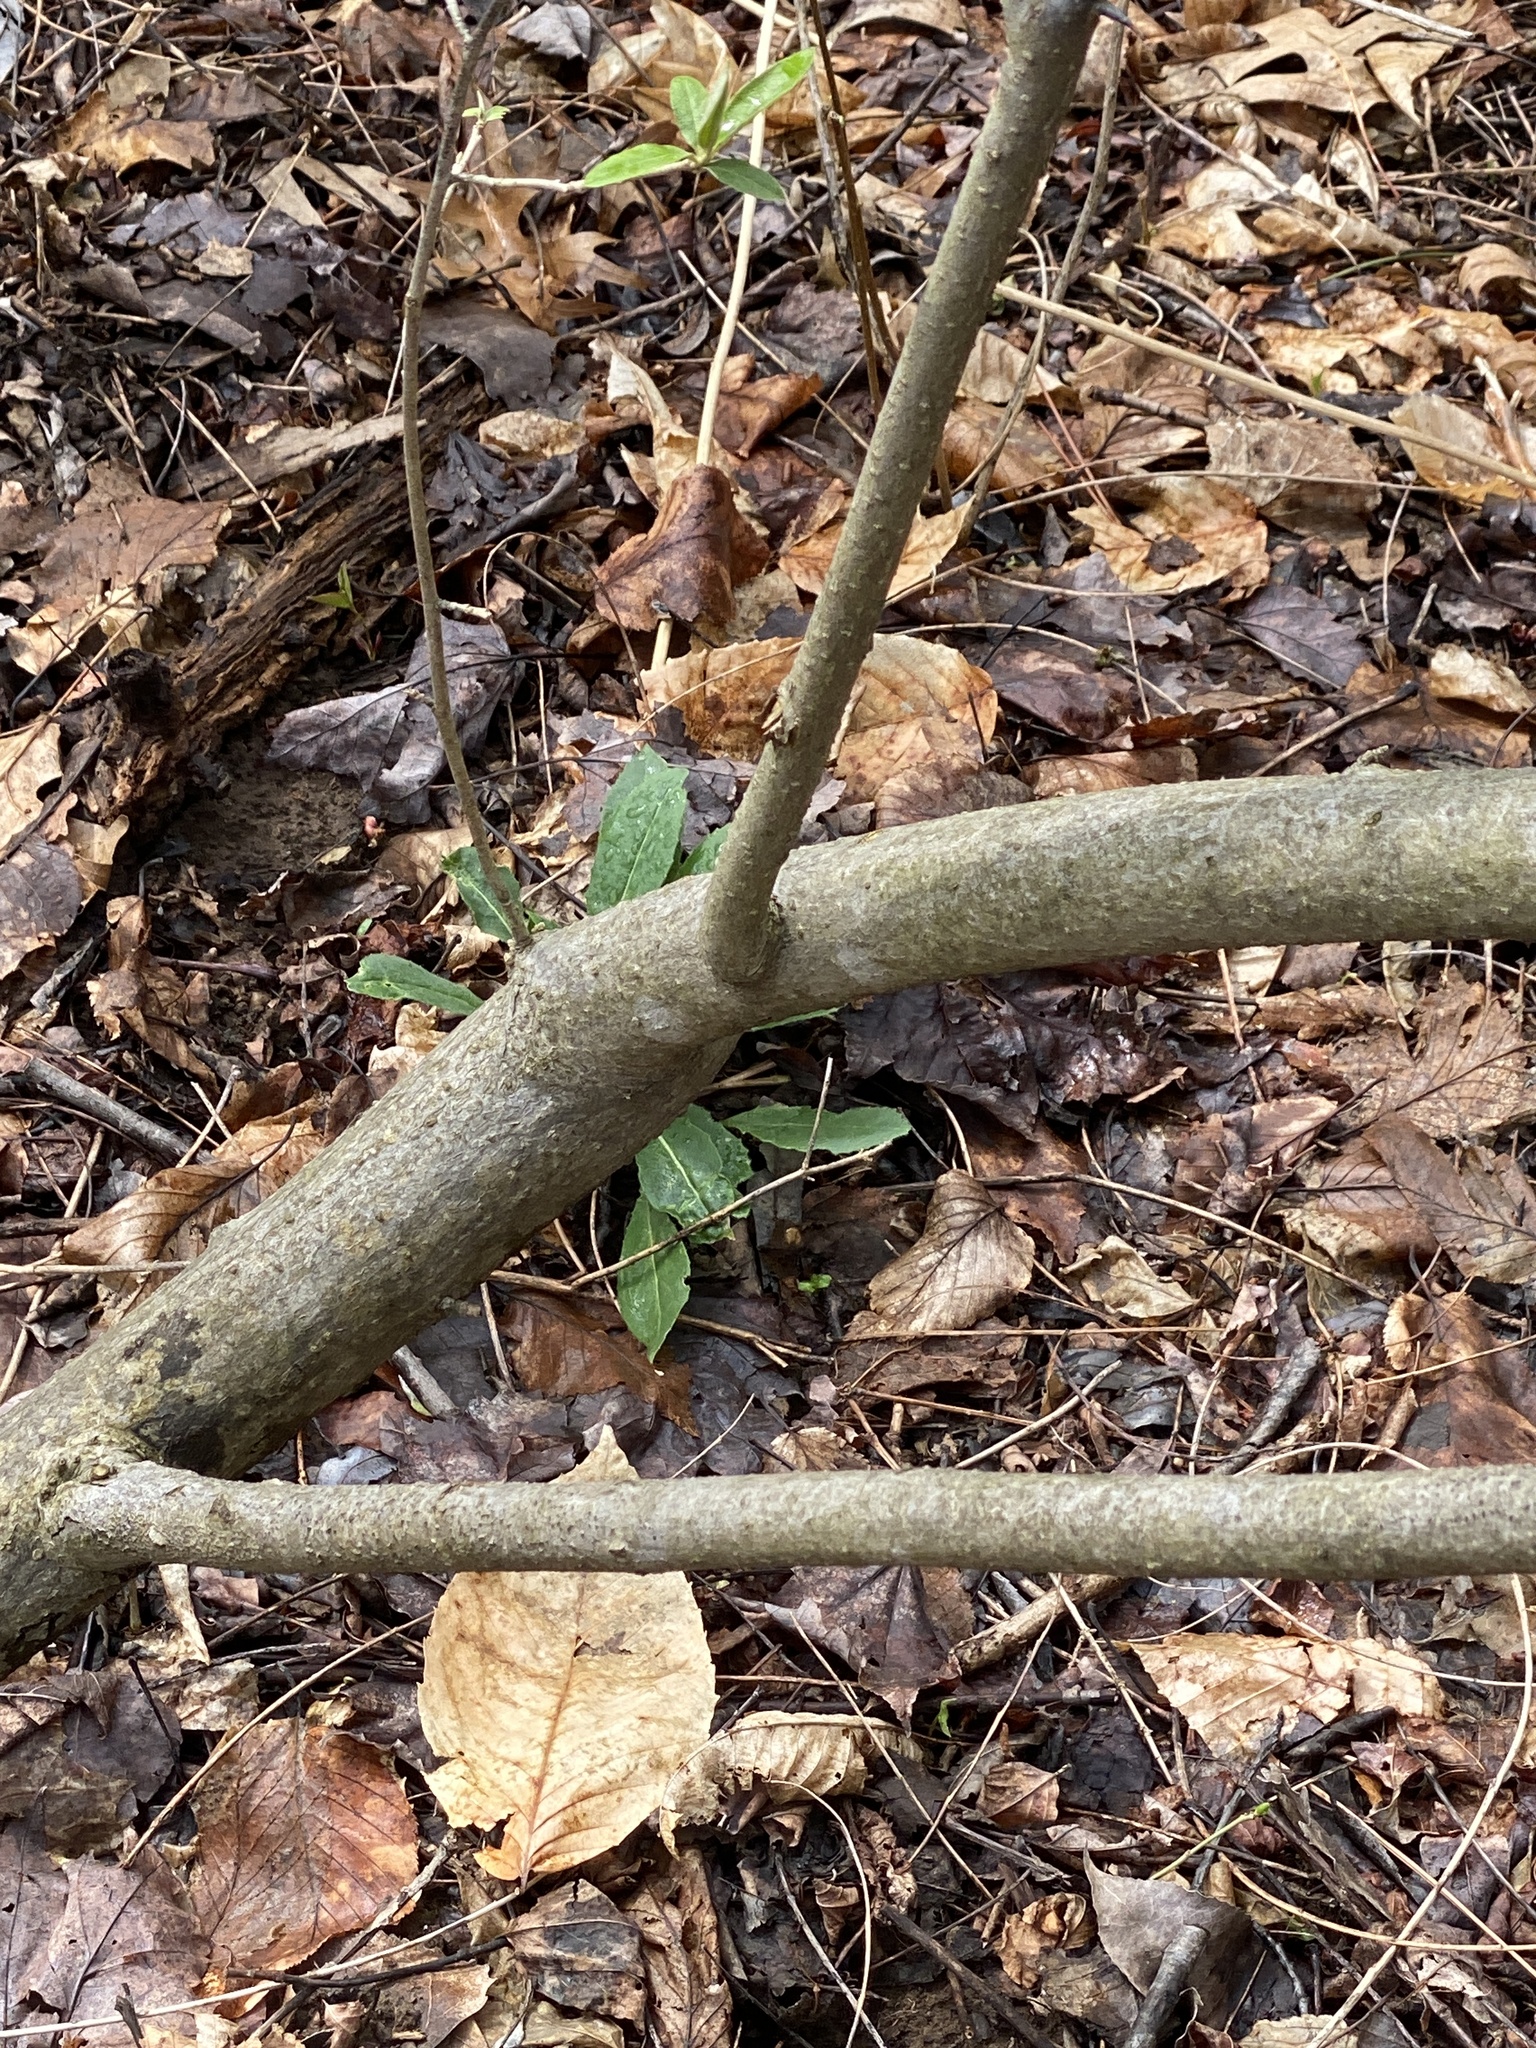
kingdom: Plantae
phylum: Tracheophyta
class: Magnoliopsida
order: Rosales
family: Elaeagnaceae
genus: Elaeagnus
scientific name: Elaeagnus umbellata
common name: Autumn olive
